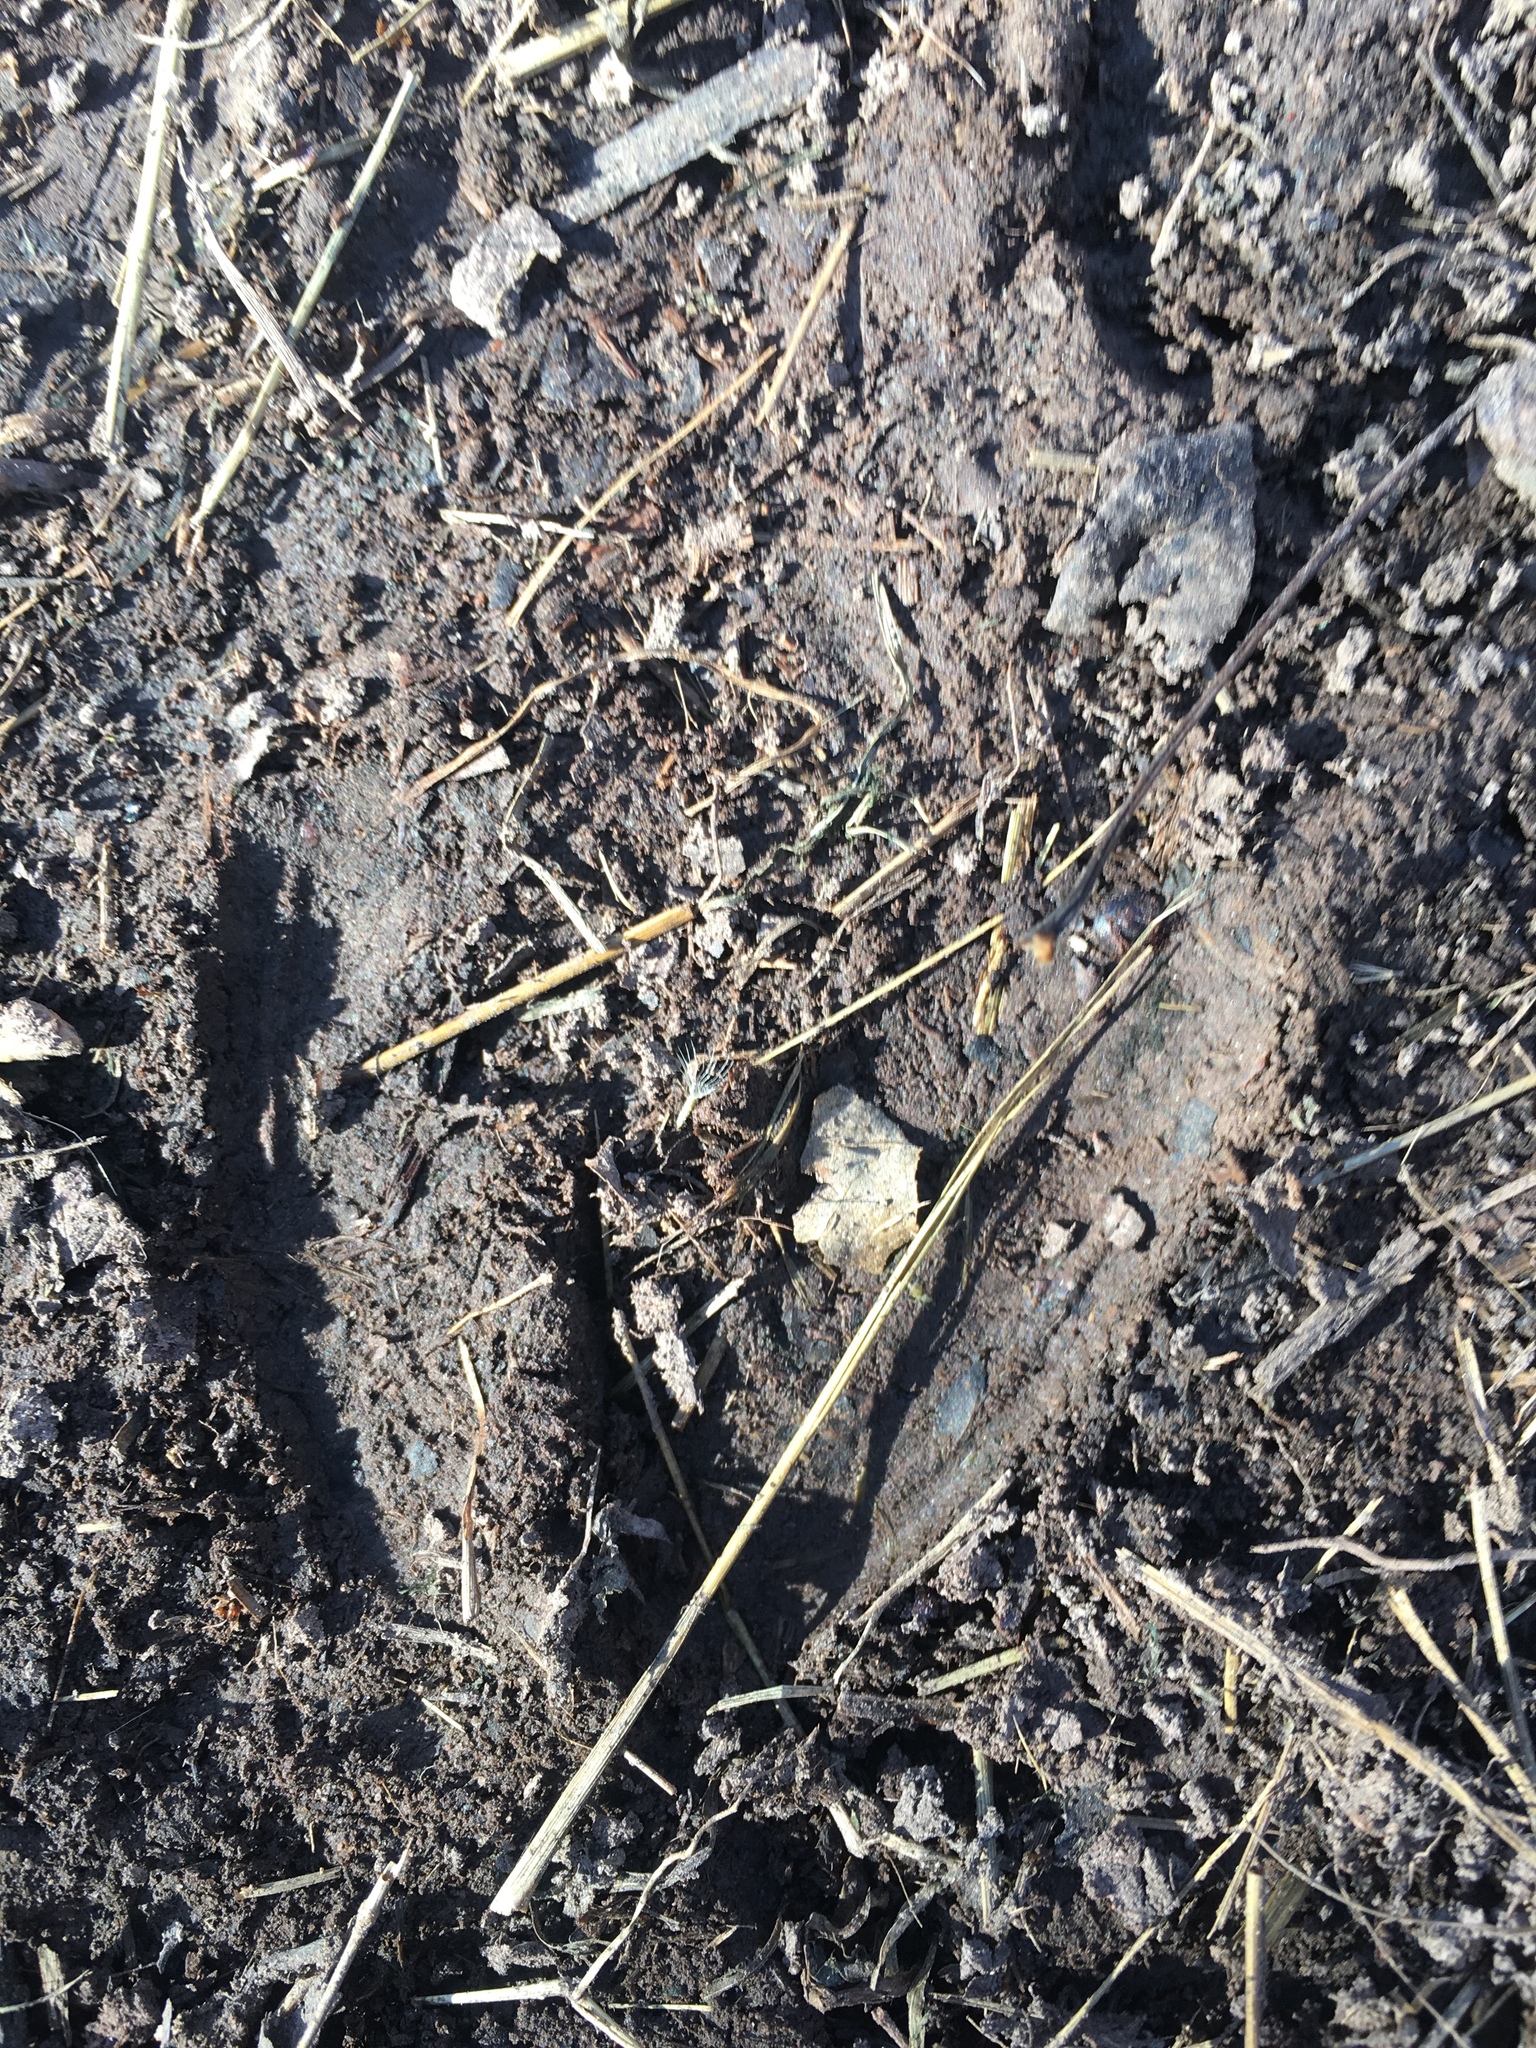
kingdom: Animalia
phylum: Chordata
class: Mammalia
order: Artiodactyla
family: Cervidae
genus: Odocoileus
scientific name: Odocoileus virginianus
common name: White-tailed deer
